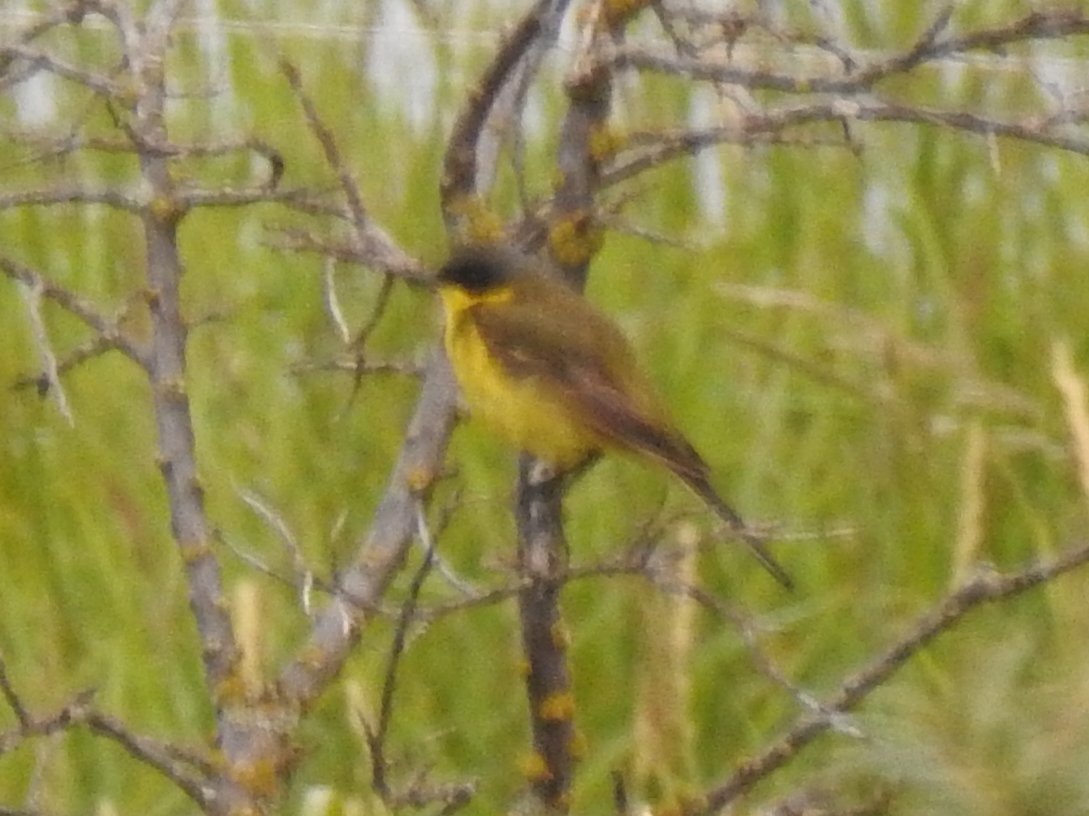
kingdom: Animalia
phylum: Chordata
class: Aves
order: Passeriformes
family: Motacillidae
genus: Motacilla
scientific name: Motacilla flava
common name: Western yellow wagtail
